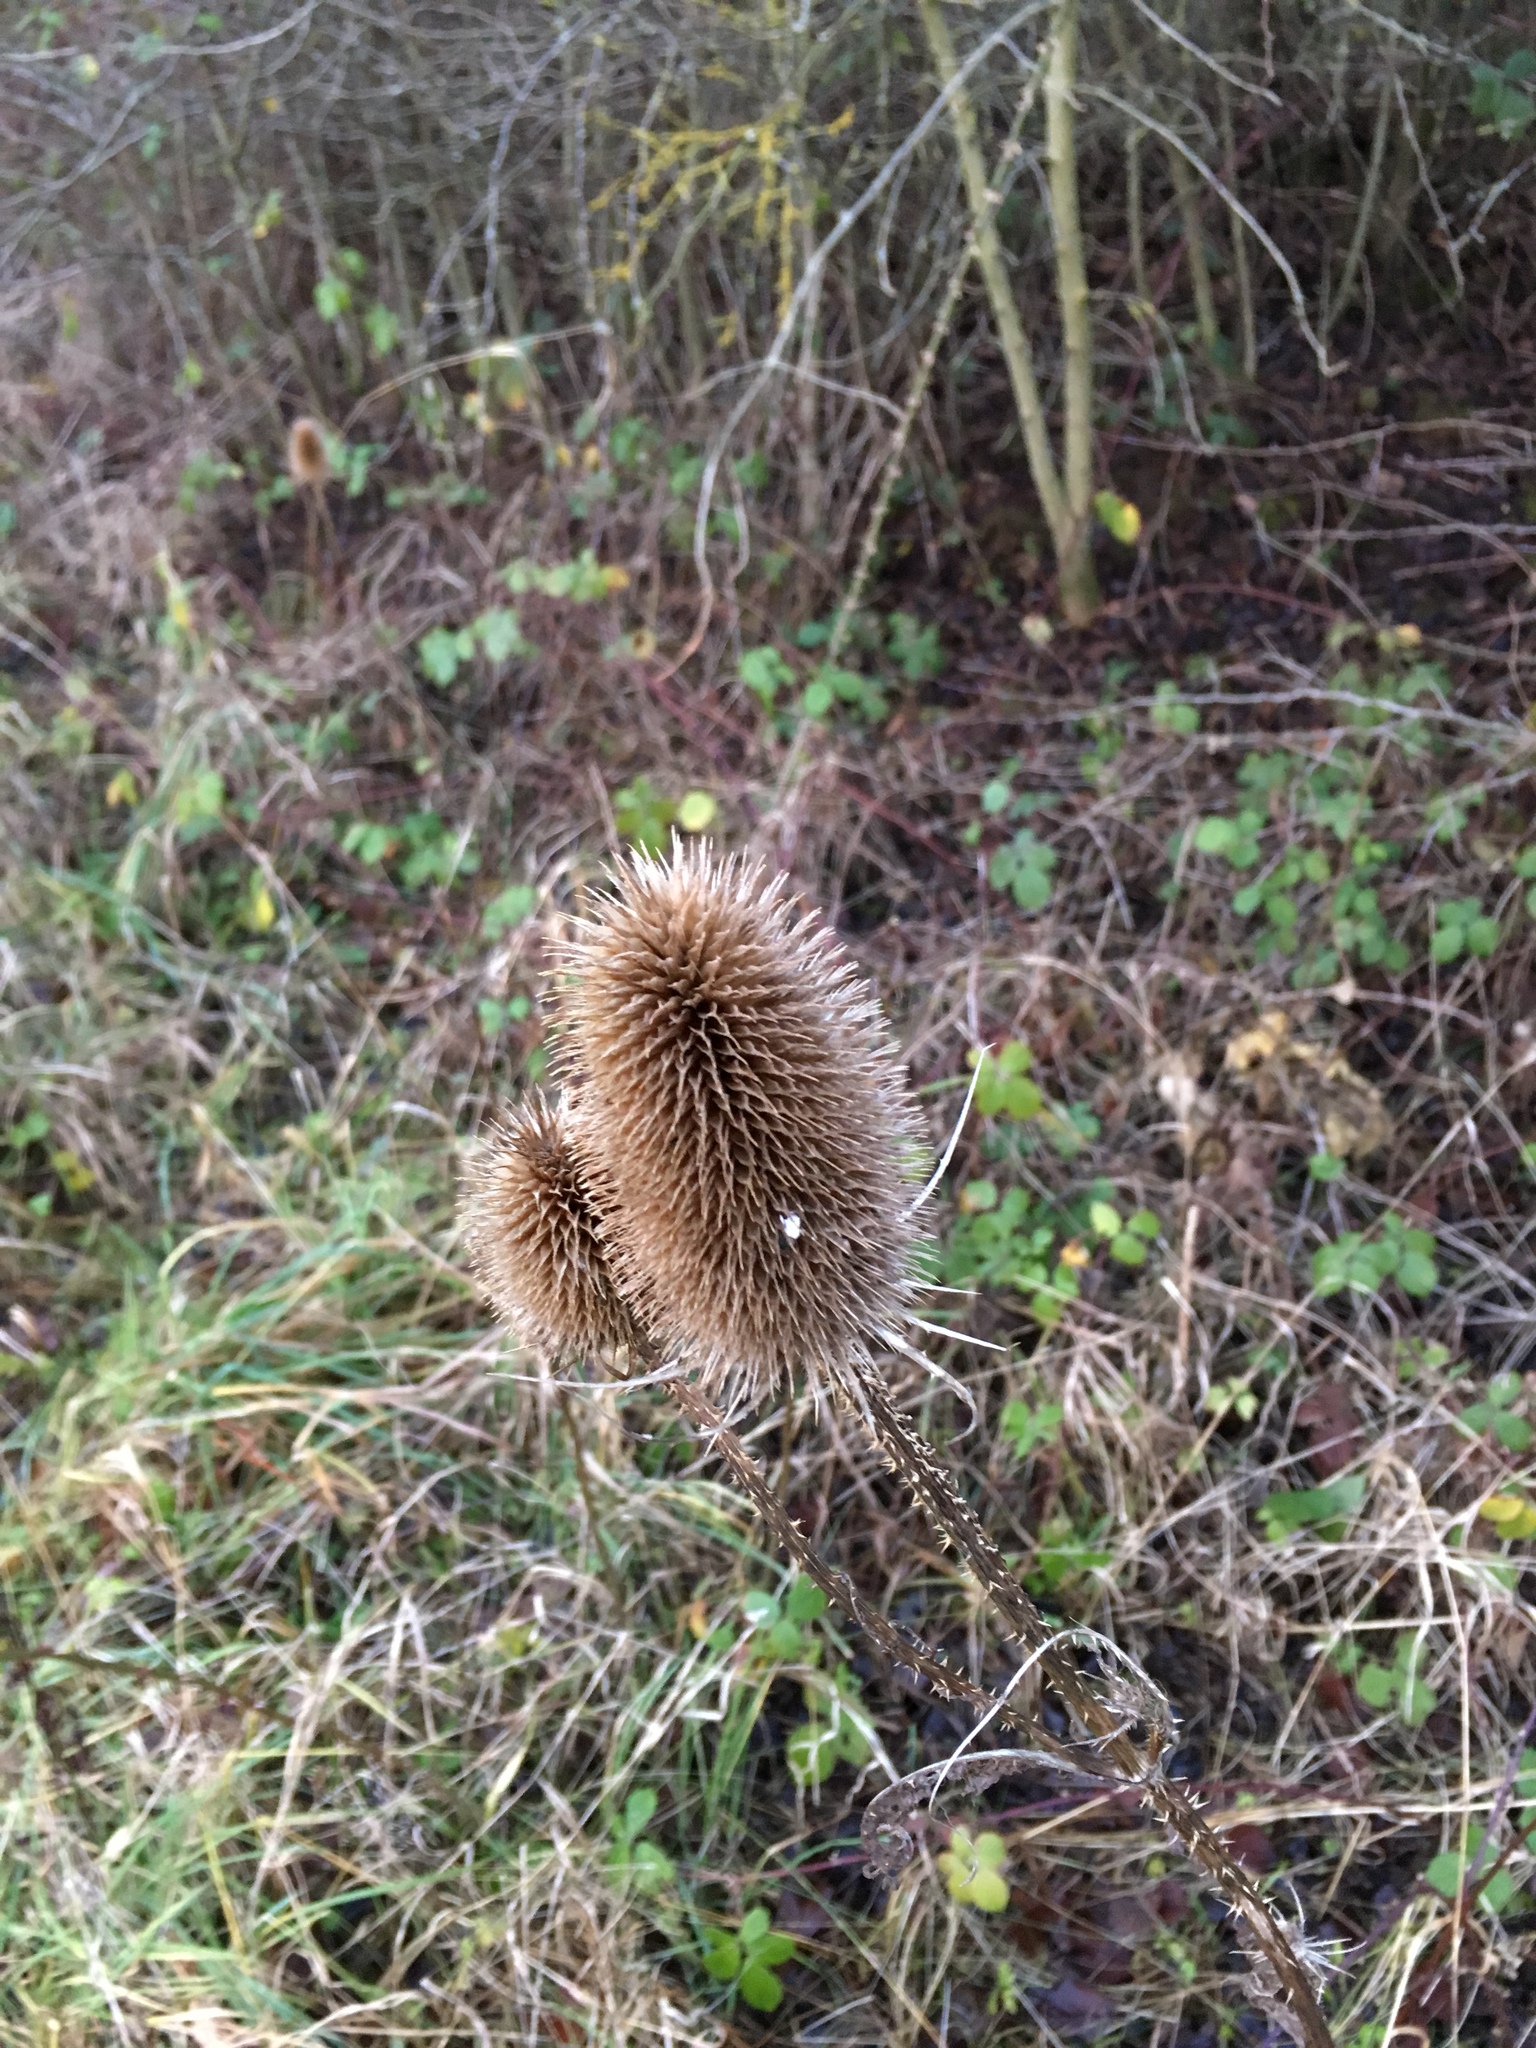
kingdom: Plantae
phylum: Tracheophyta
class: Magnoliopsida
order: Dipsacales
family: Caprifoliaceae
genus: Dipsacus
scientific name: Dipsacus fullonum
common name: Teasel
